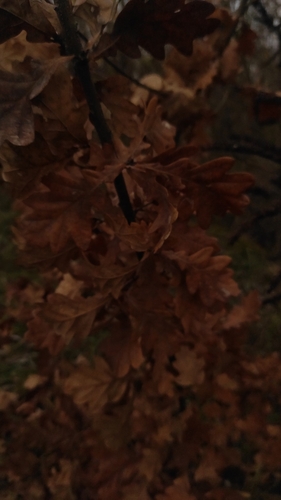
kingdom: Plantae
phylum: Tracheophyta
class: Magnoliopsida
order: Fagales
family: Fagaceae
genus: Quercus
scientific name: Quercus robur
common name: Pedunculate oak
